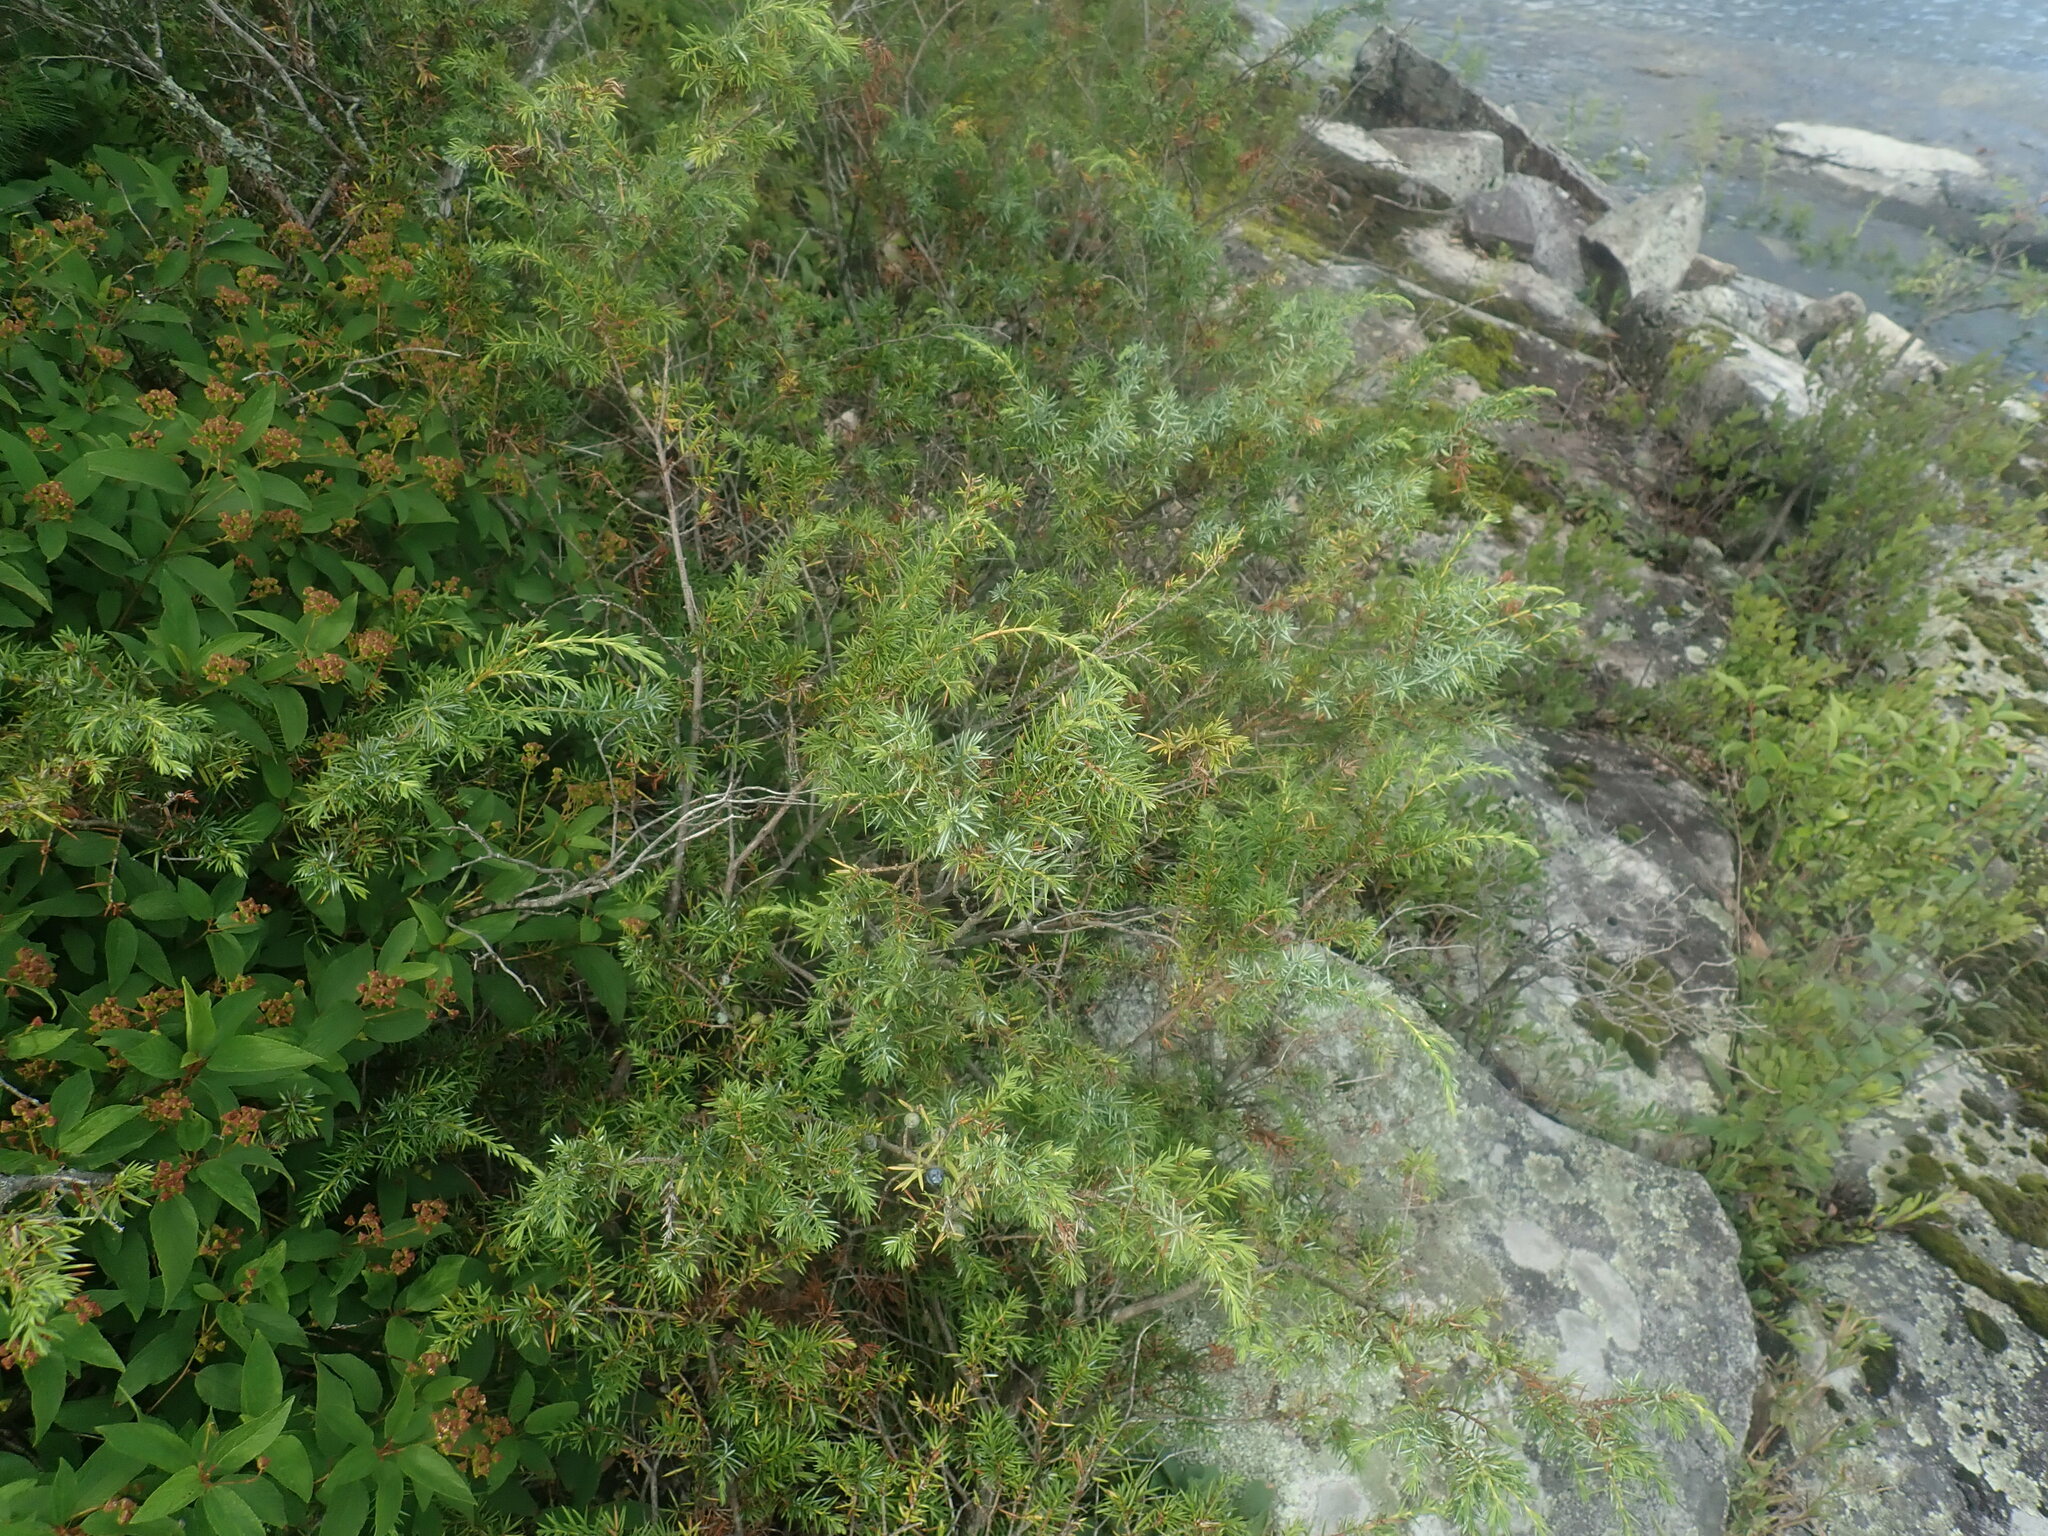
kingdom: Plantae
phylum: Tracheophyta
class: Pinopsida
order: Pinales
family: Cupressaceae
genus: Juniperus
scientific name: Juniperus communis
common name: Common juniper
